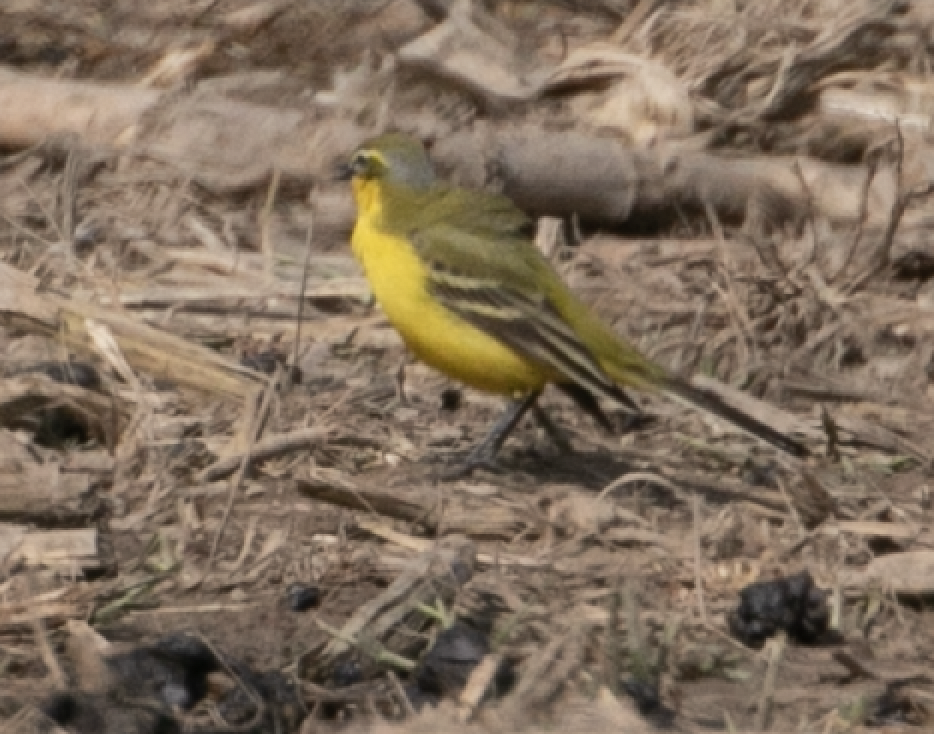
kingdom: Animalia
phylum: Chordata
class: Aves
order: Passeriformes
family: Motacillidae
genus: Motacilla
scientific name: Motacilla flava
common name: Western yellow wagtail
